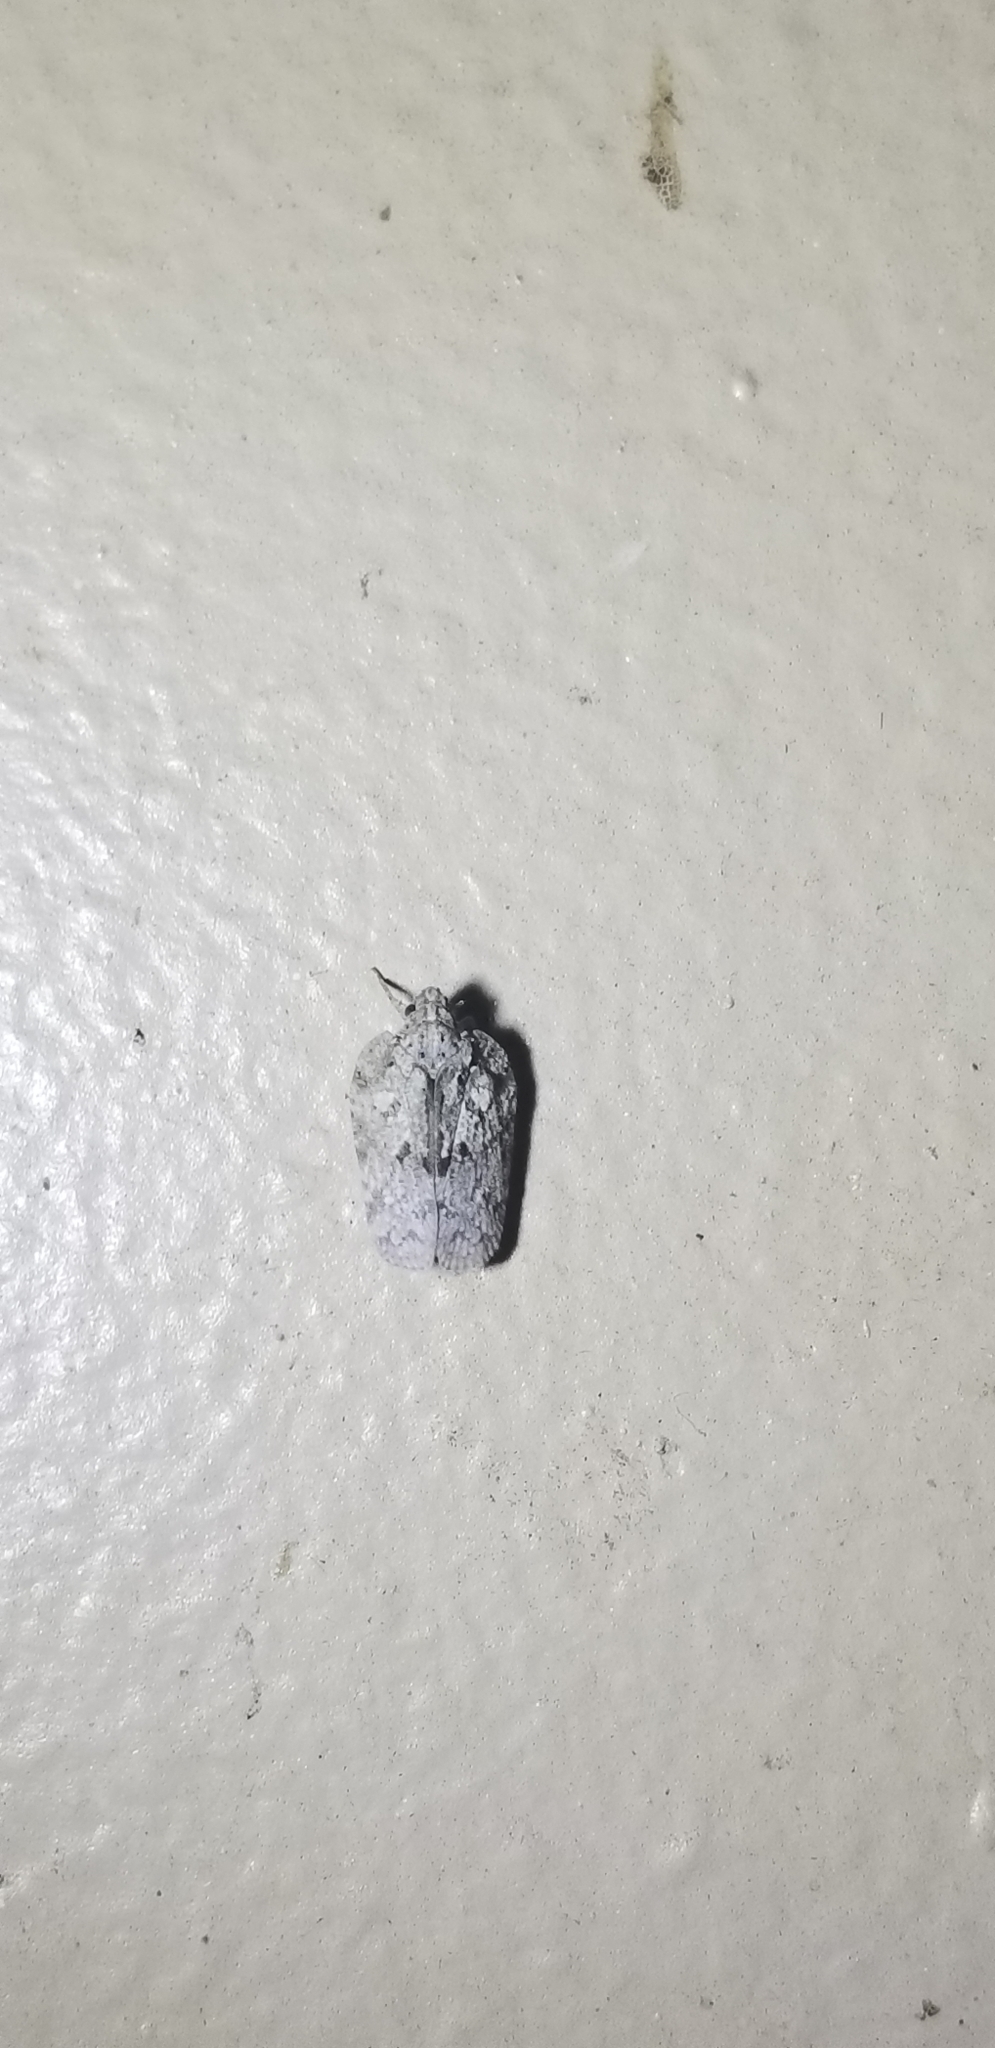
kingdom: Animalia
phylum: Arthropoda
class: Insecta
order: Hemiptera
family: Flatidae
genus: Flatoidinus
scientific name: Flatoidinus punctatus
